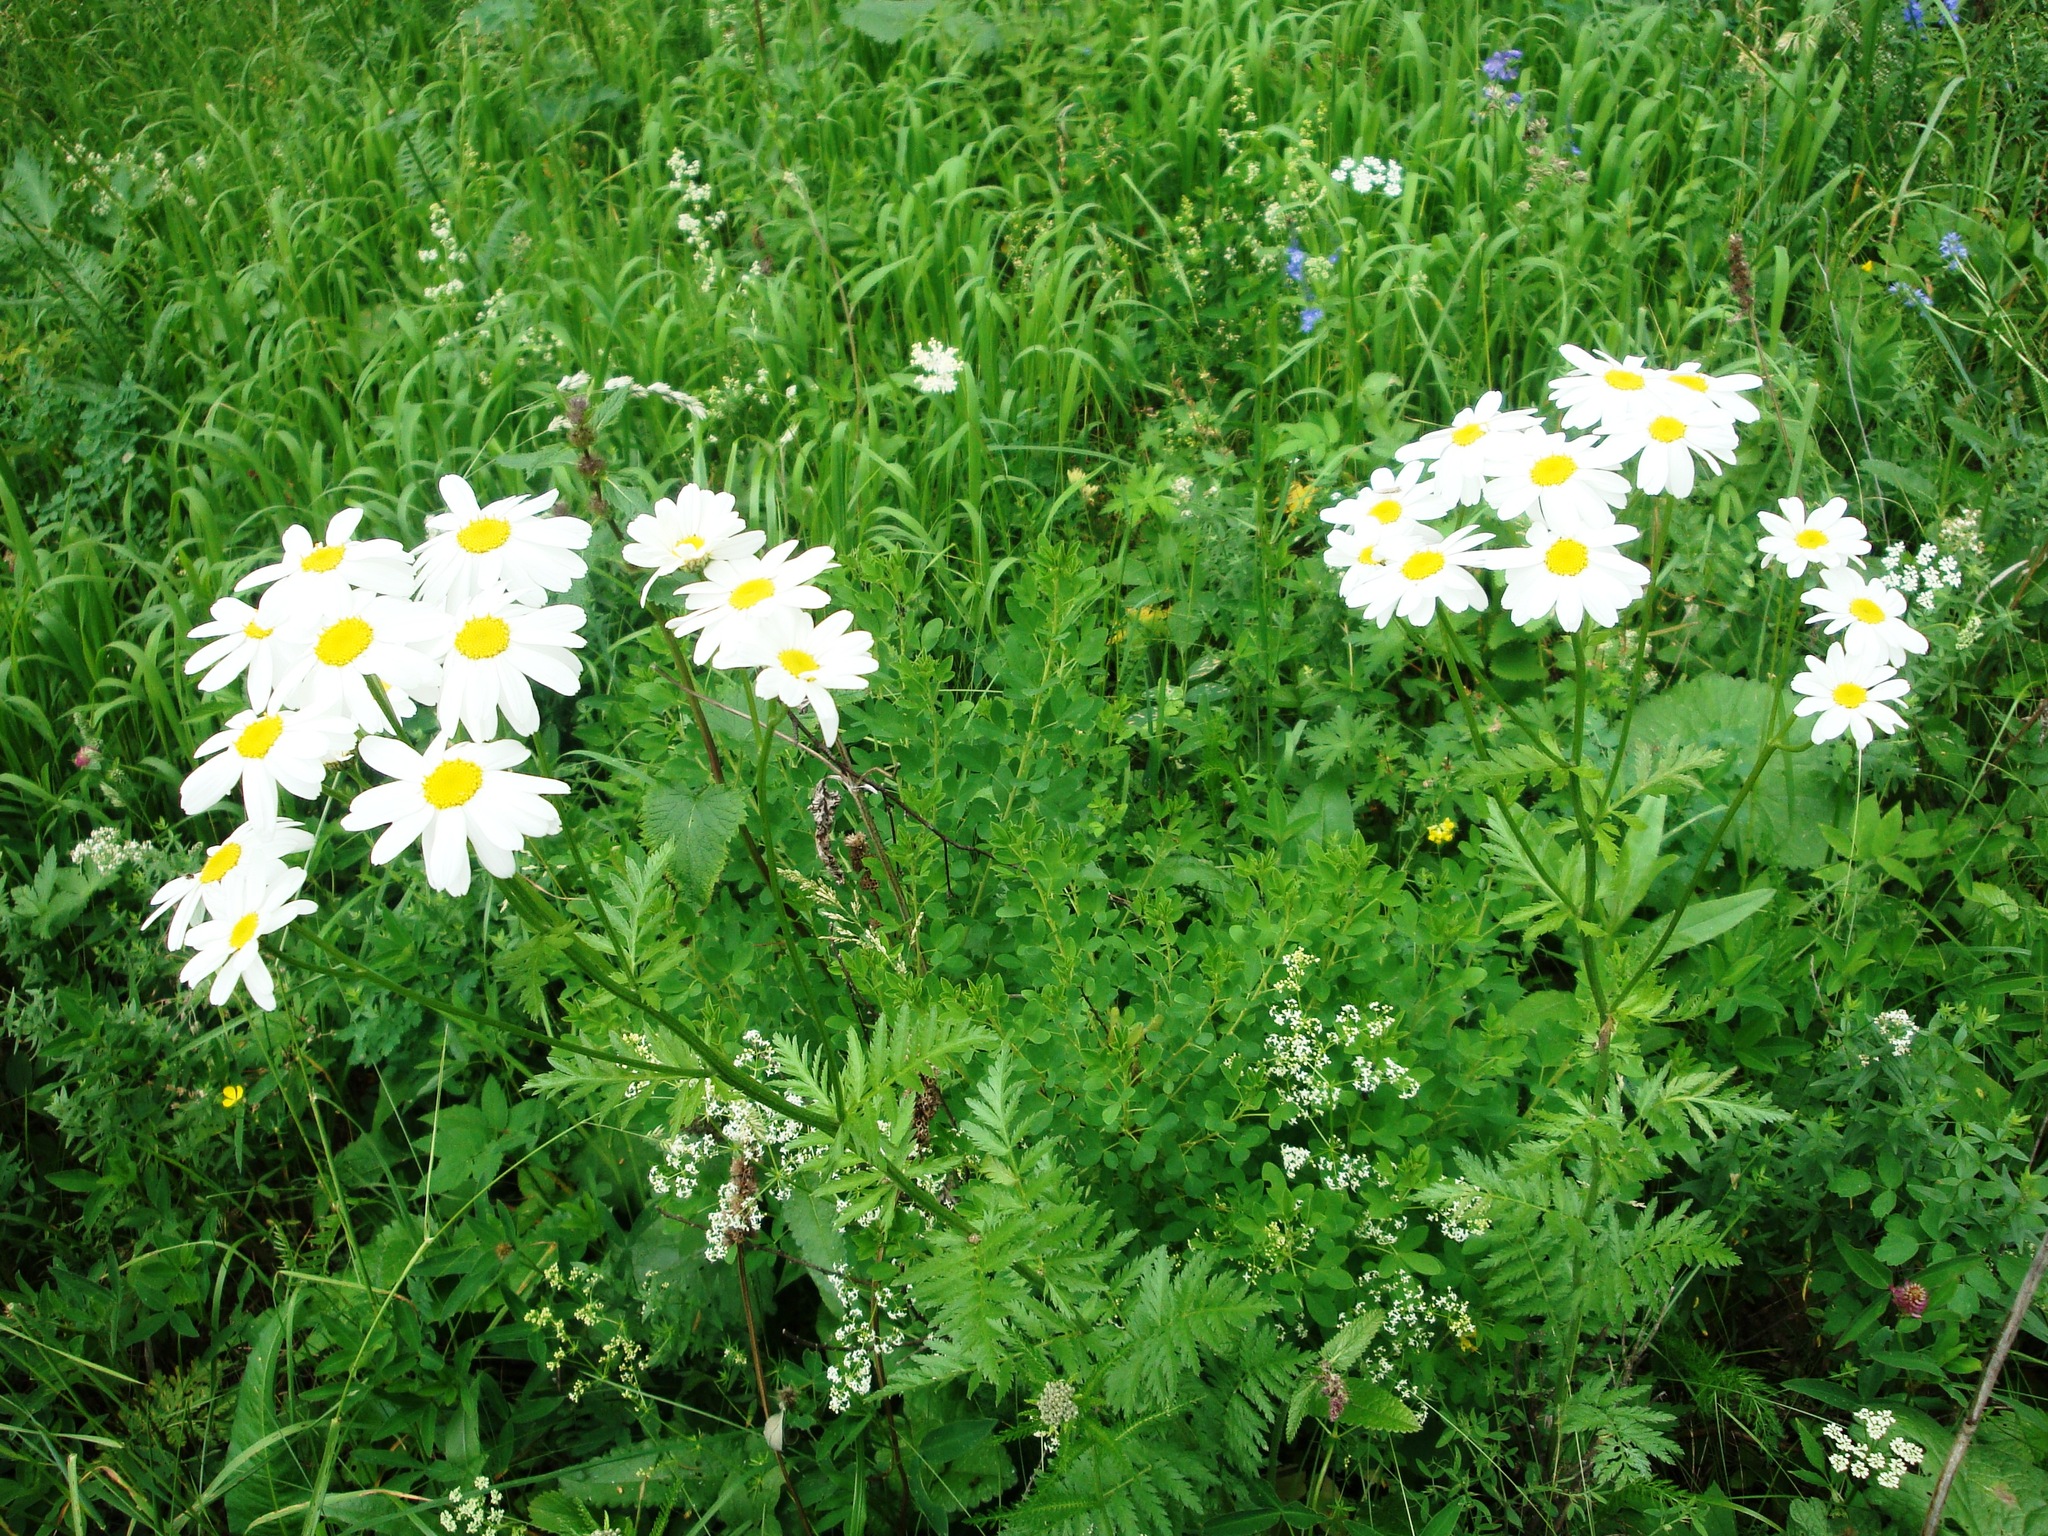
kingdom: Plantae
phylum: Tracheophyta
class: Magnoliopsida
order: Asterales
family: Asteraceae
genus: Tanacetum
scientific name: Tanacetum corymbosum
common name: Scentless feverfew
